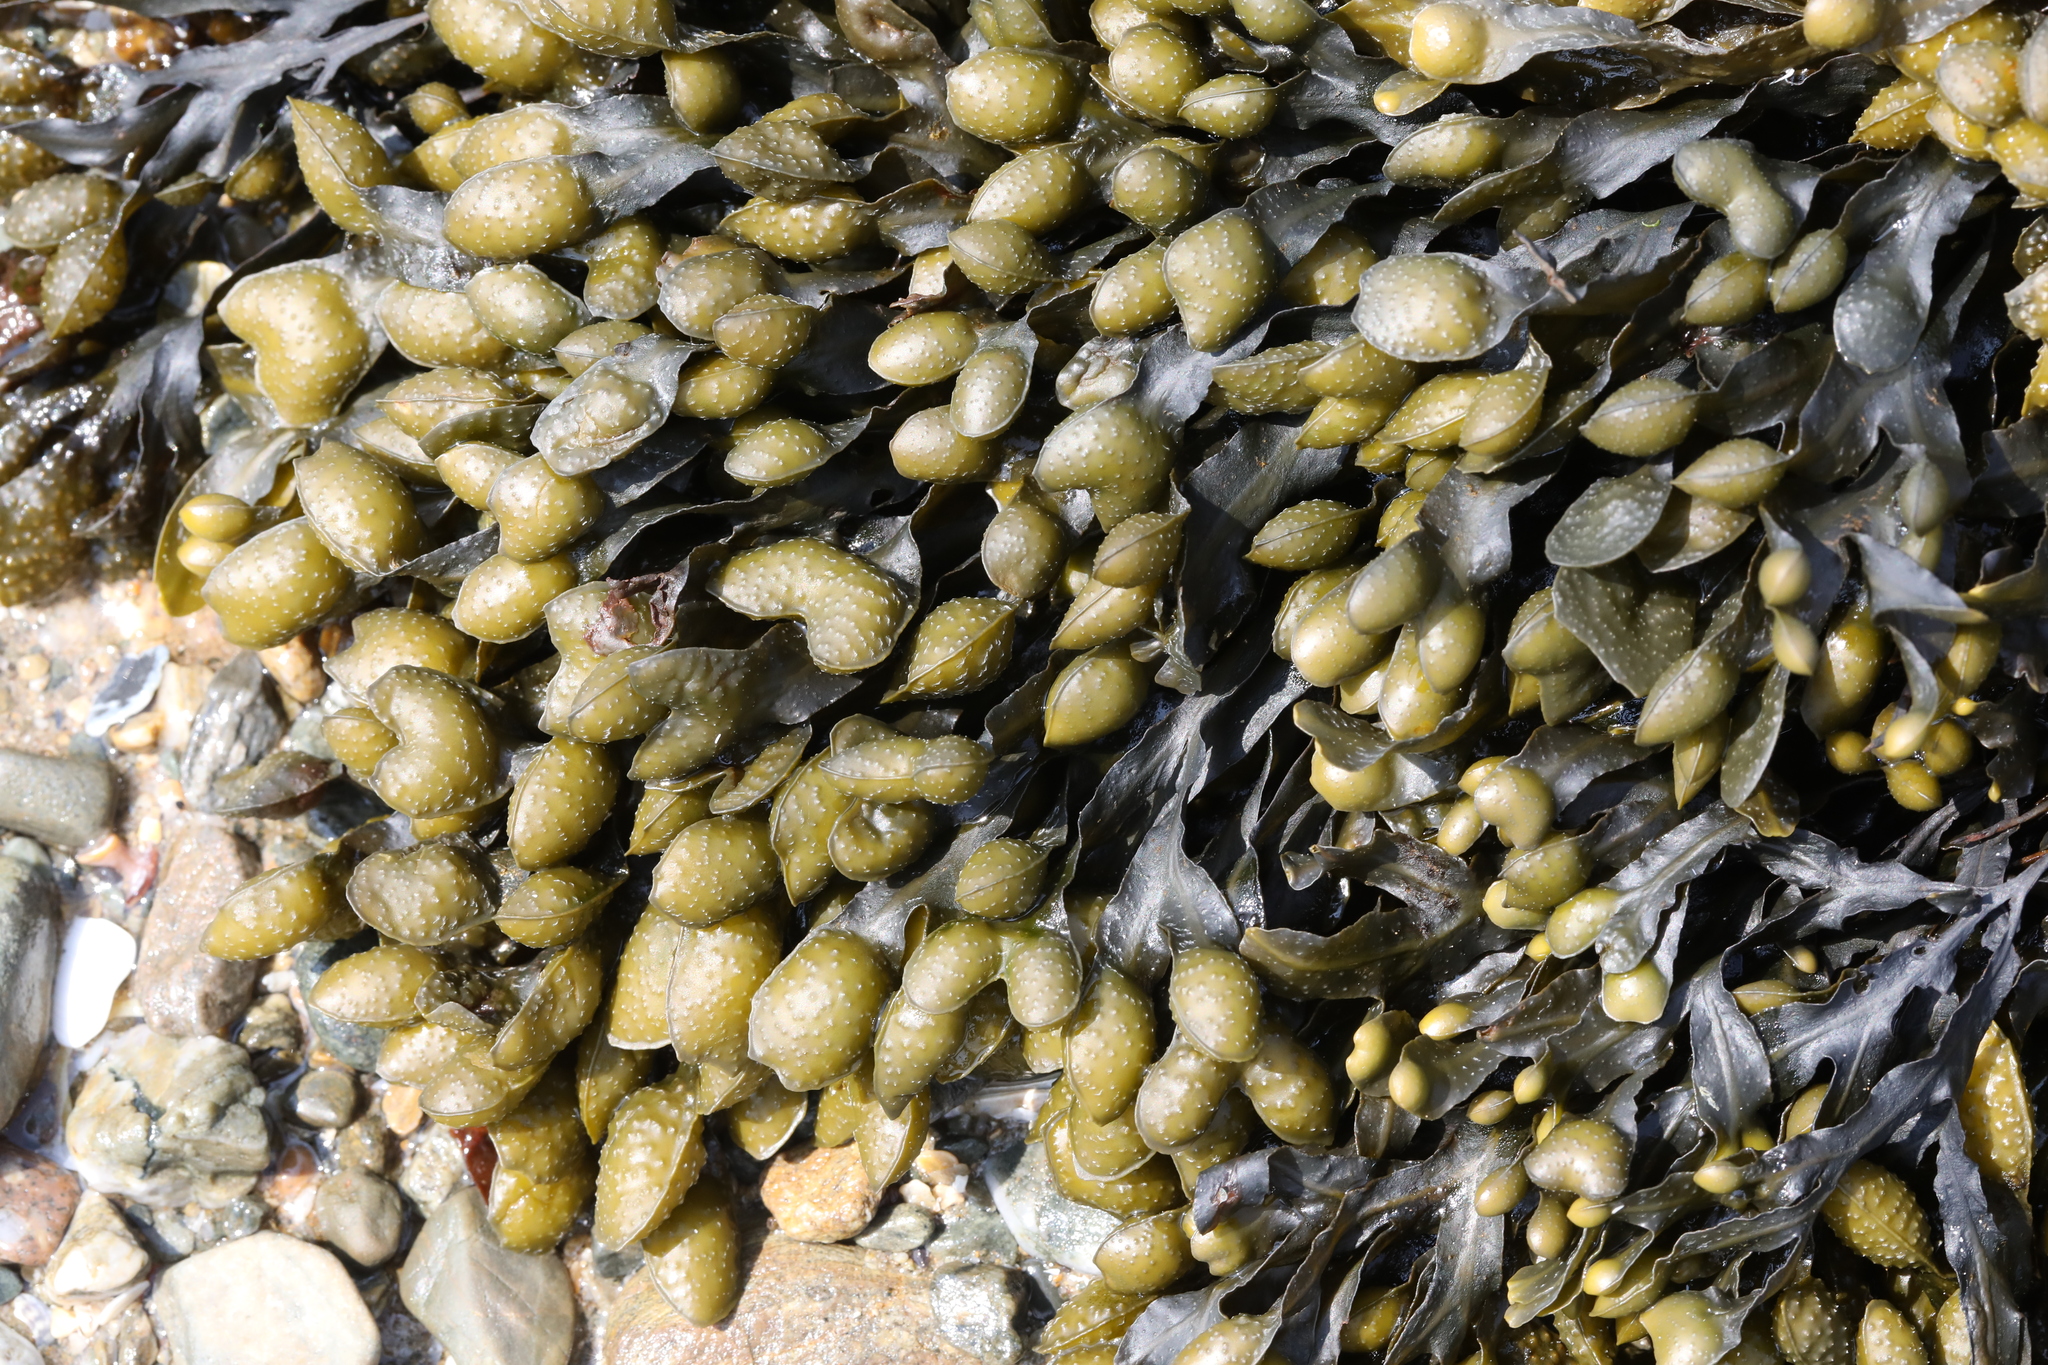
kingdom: Chromista
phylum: Ochrophyta
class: Phaeophyceae
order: Fucales
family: Fucaceae
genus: Fucus
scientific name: Fucus spiralis
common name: Spiral wrack
